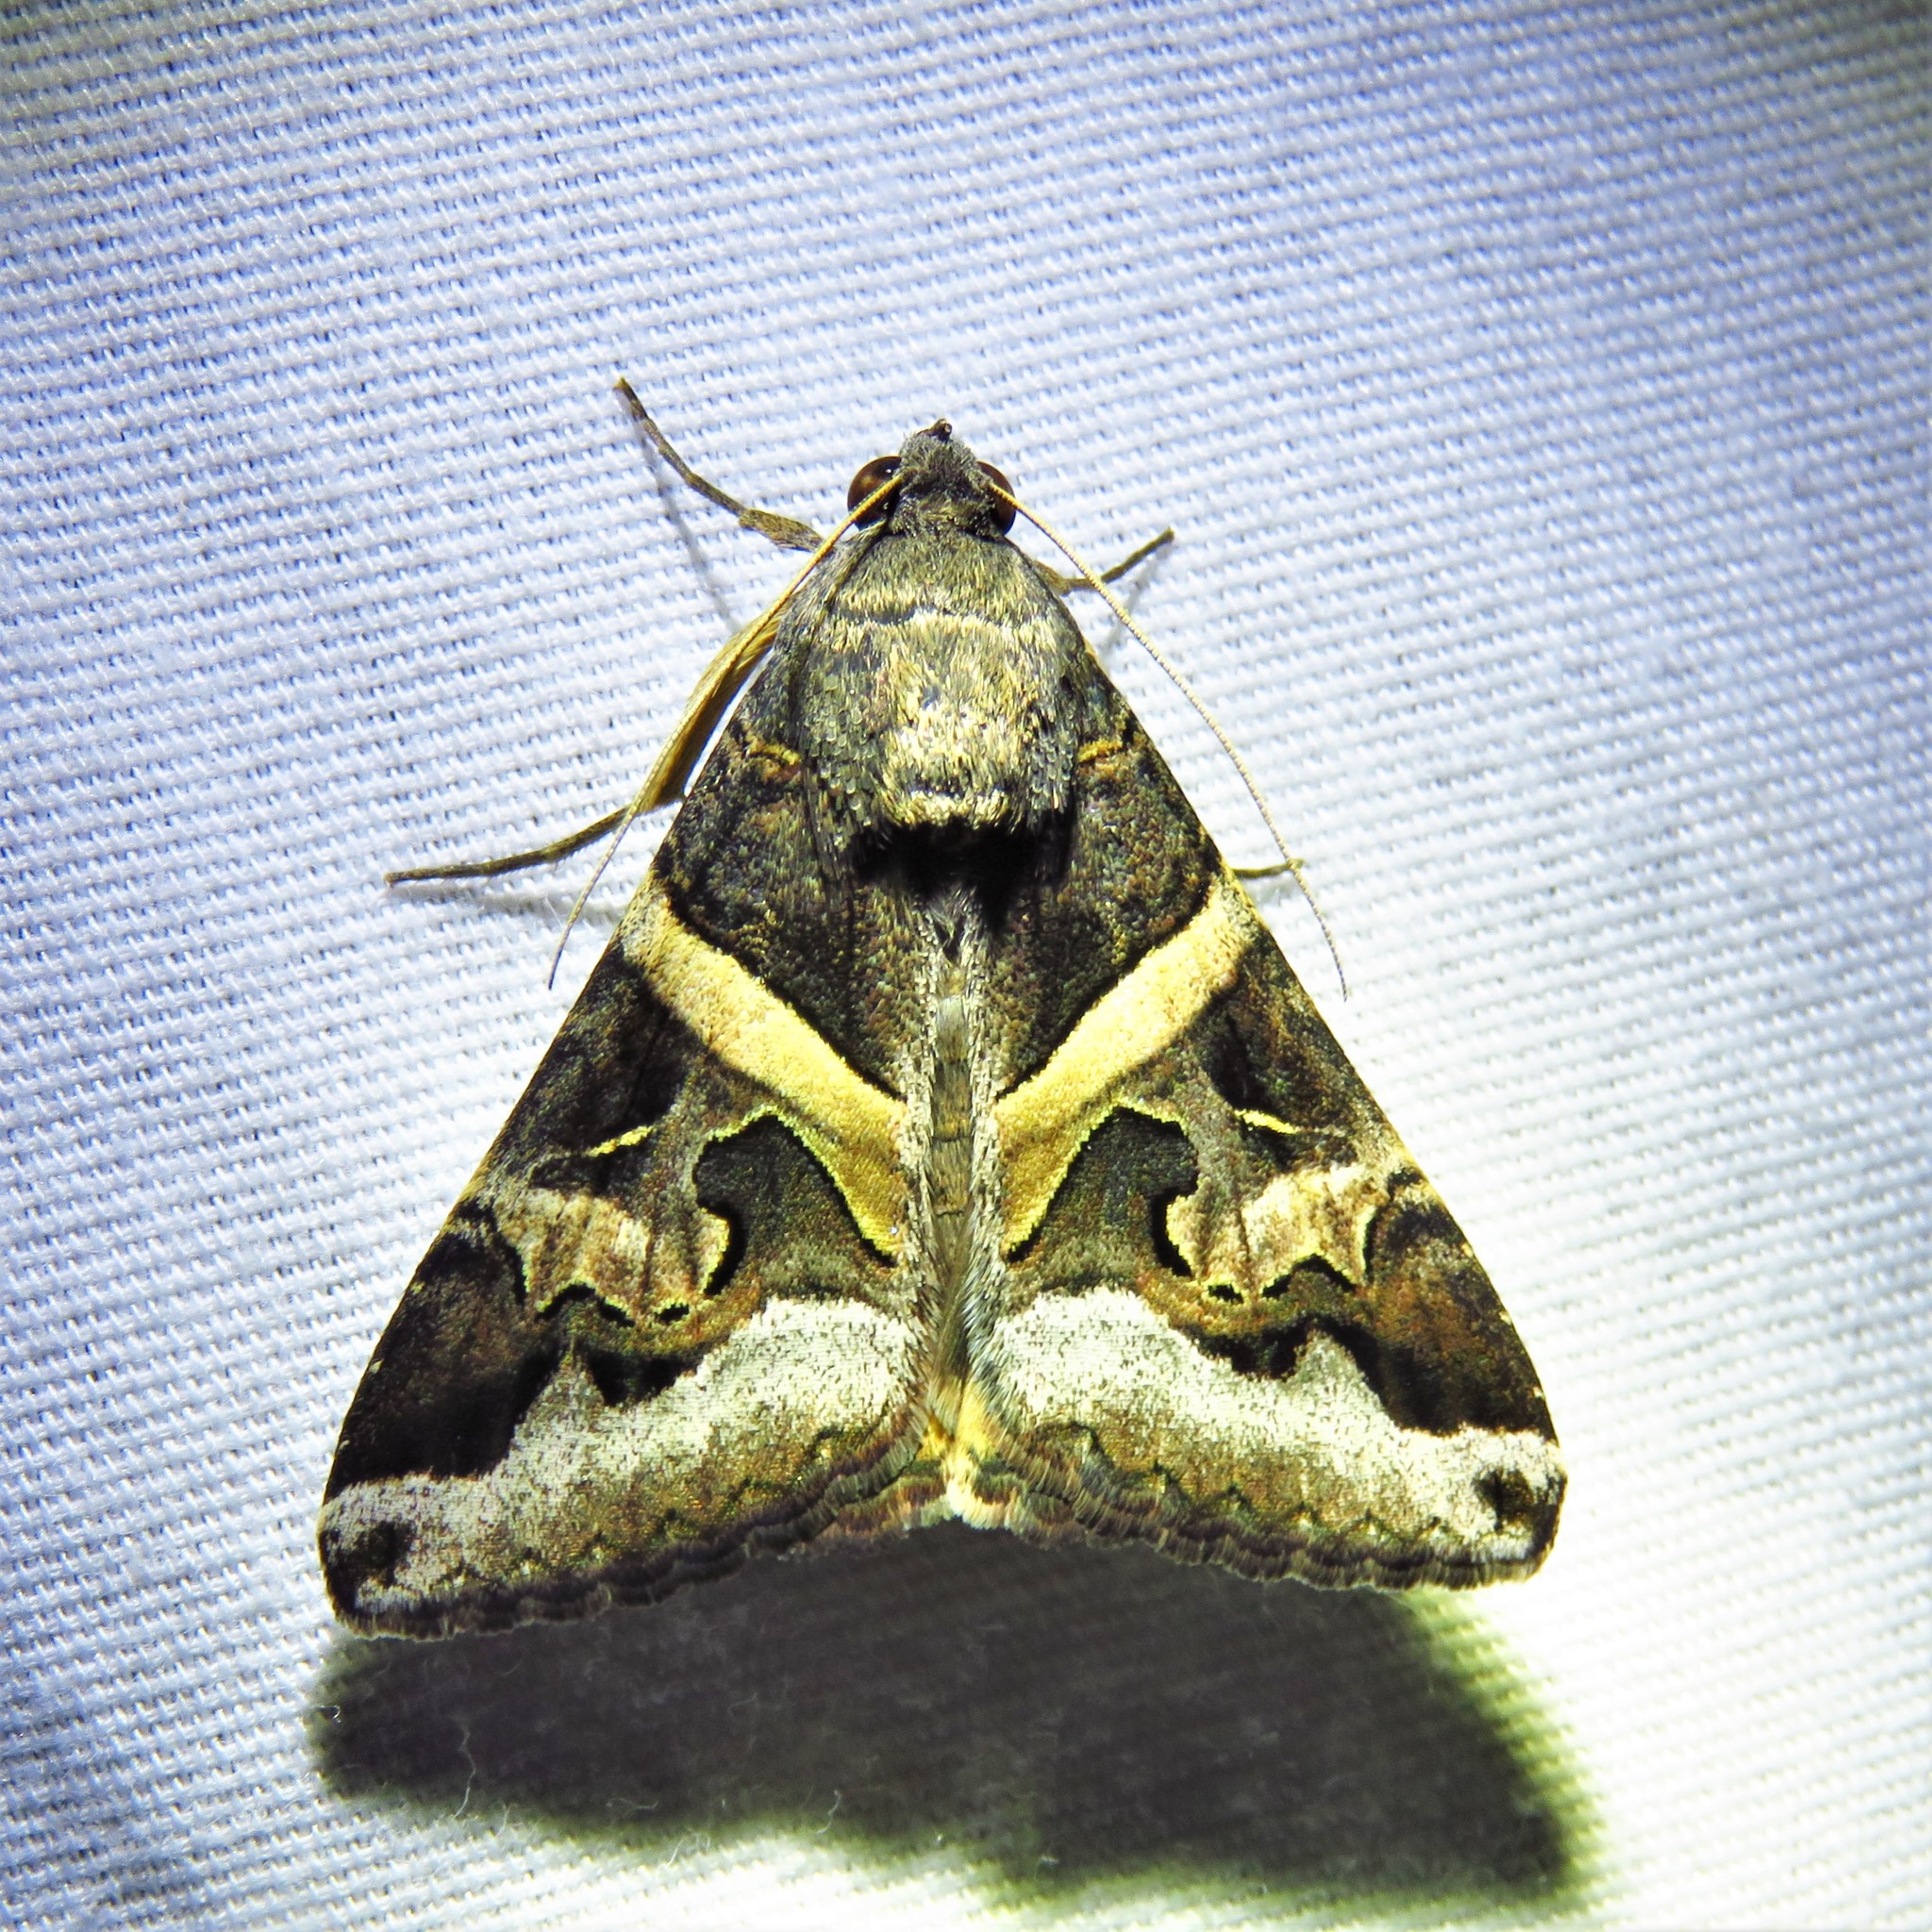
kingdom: Animalia
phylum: Arthropoda
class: Insecta
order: Lepidoptera
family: Erebidae
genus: Melipotis
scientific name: Melipotis indomita
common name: Moth
